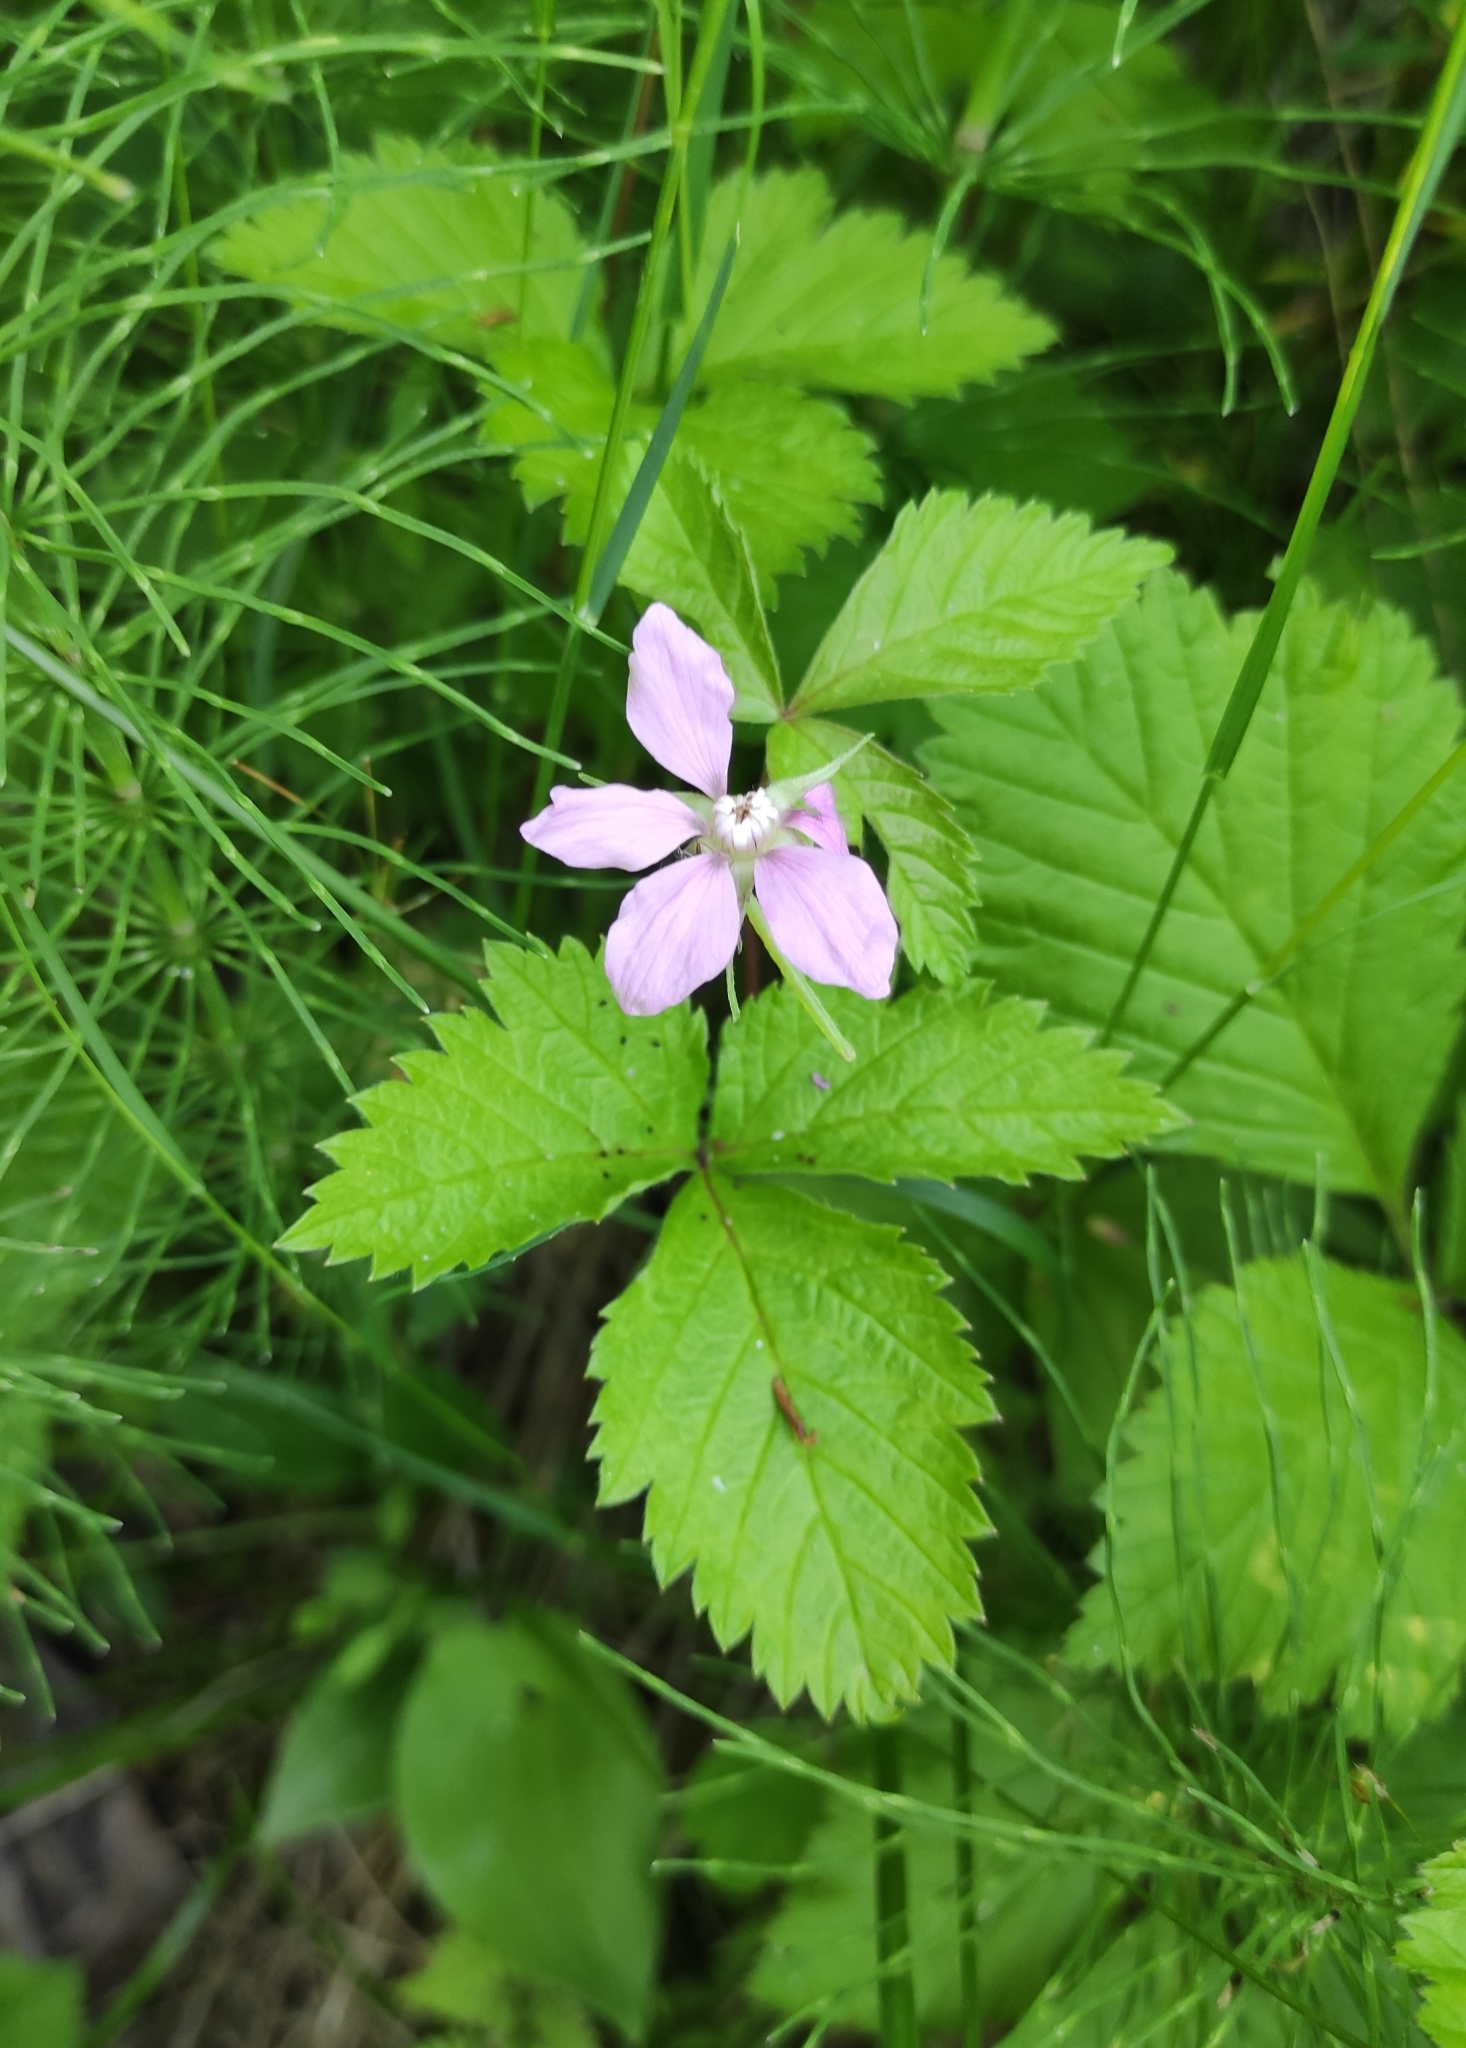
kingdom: Plantae
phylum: Tracheophyta
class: Magnoliopsida
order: Rosales
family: Rosaceae
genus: Rubus
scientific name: Rubus arcticus
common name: Arctic bramble
